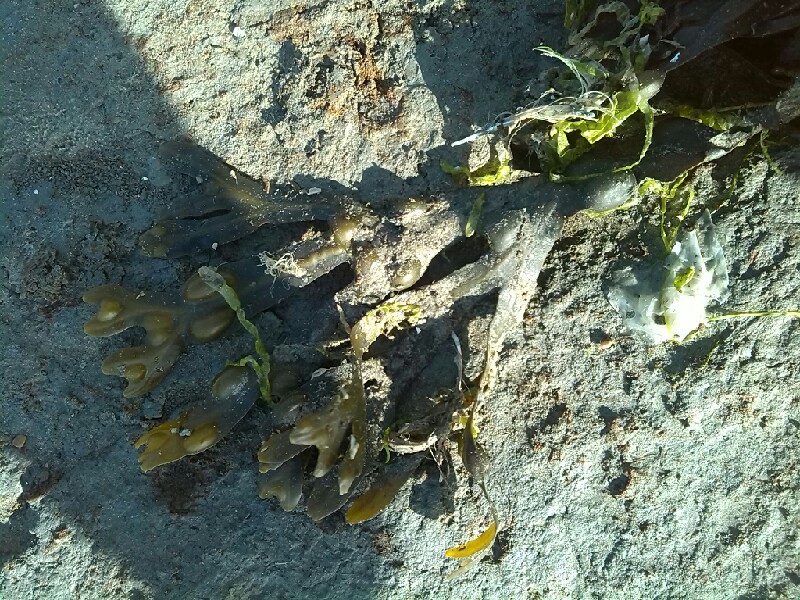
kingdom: Chromista
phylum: Ochrophyta
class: Phaeophyceae
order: Fucales
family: Fucaceae
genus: Fucus
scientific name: Fucus vesiculosus
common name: Bladder wrack
